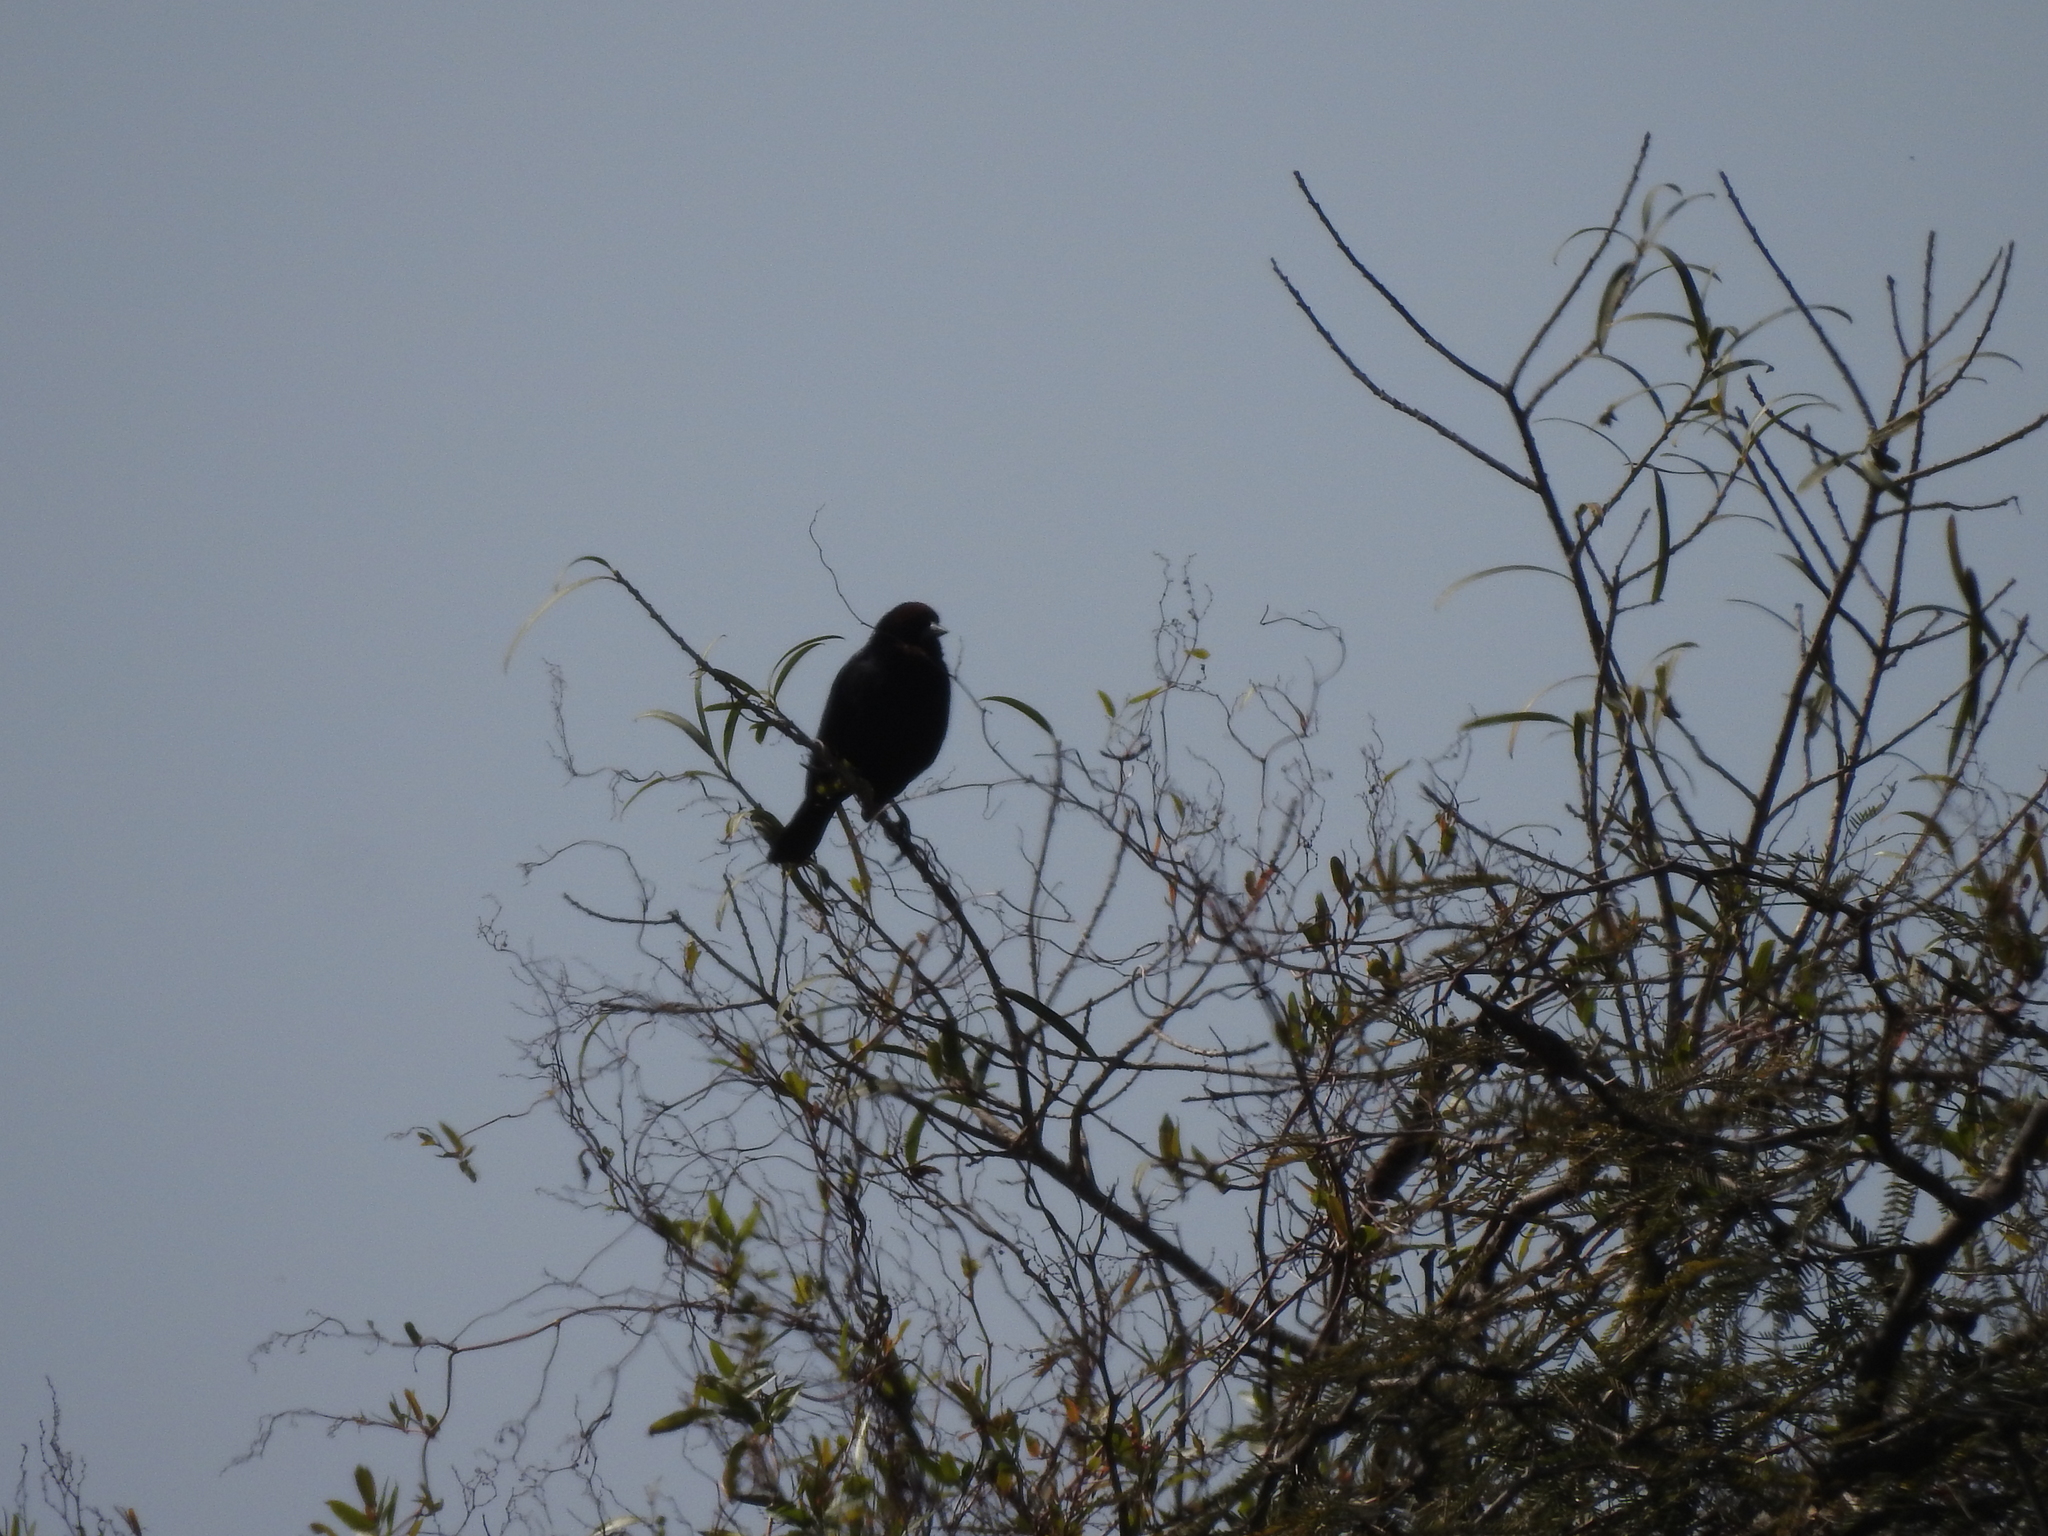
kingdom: Animalia
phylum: Chordata
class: Aves
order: Passeriformes
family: Icteridae
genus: Chrysomus
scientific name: Chrysomus ruficapillus
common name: Chestnut-capped blackbird
